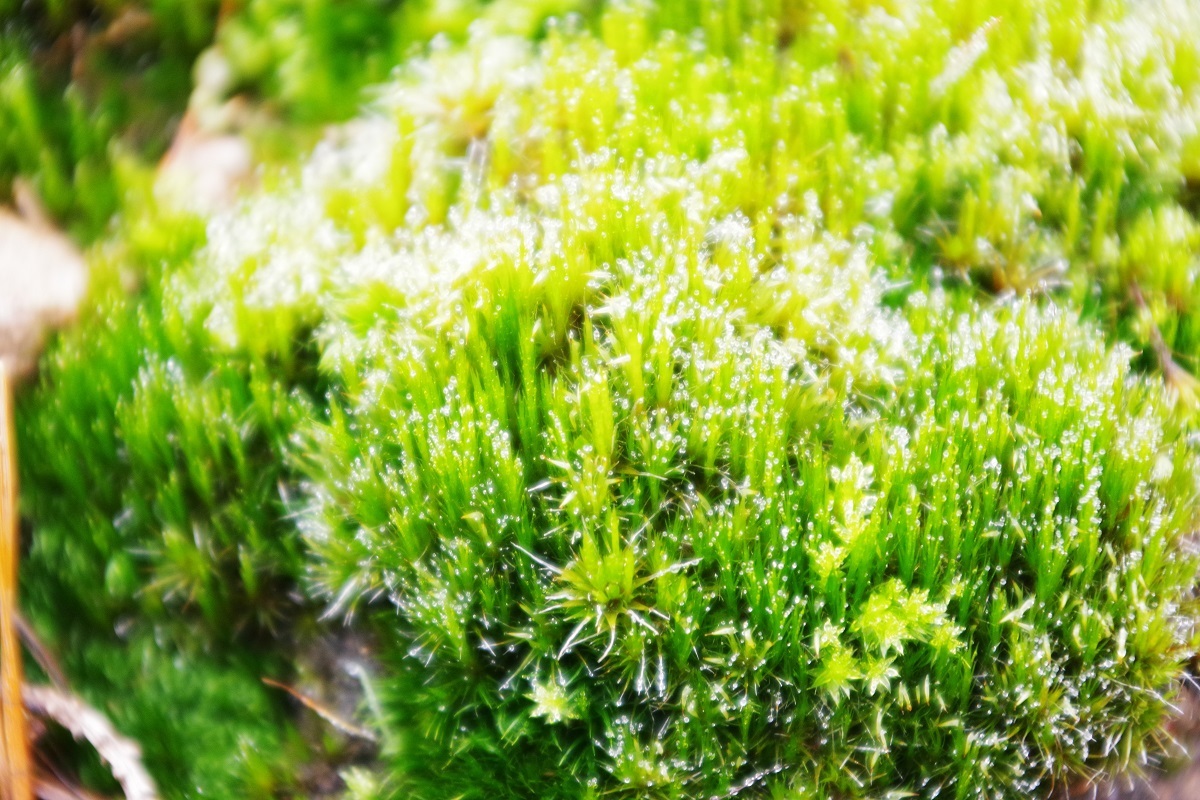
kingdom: Plantae
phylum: Bryophyta
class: Bryopsida
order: Dicranales
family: Leucobryaceae
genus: Campylopus
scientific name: Campylopus introflexus
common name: Heath star moss
